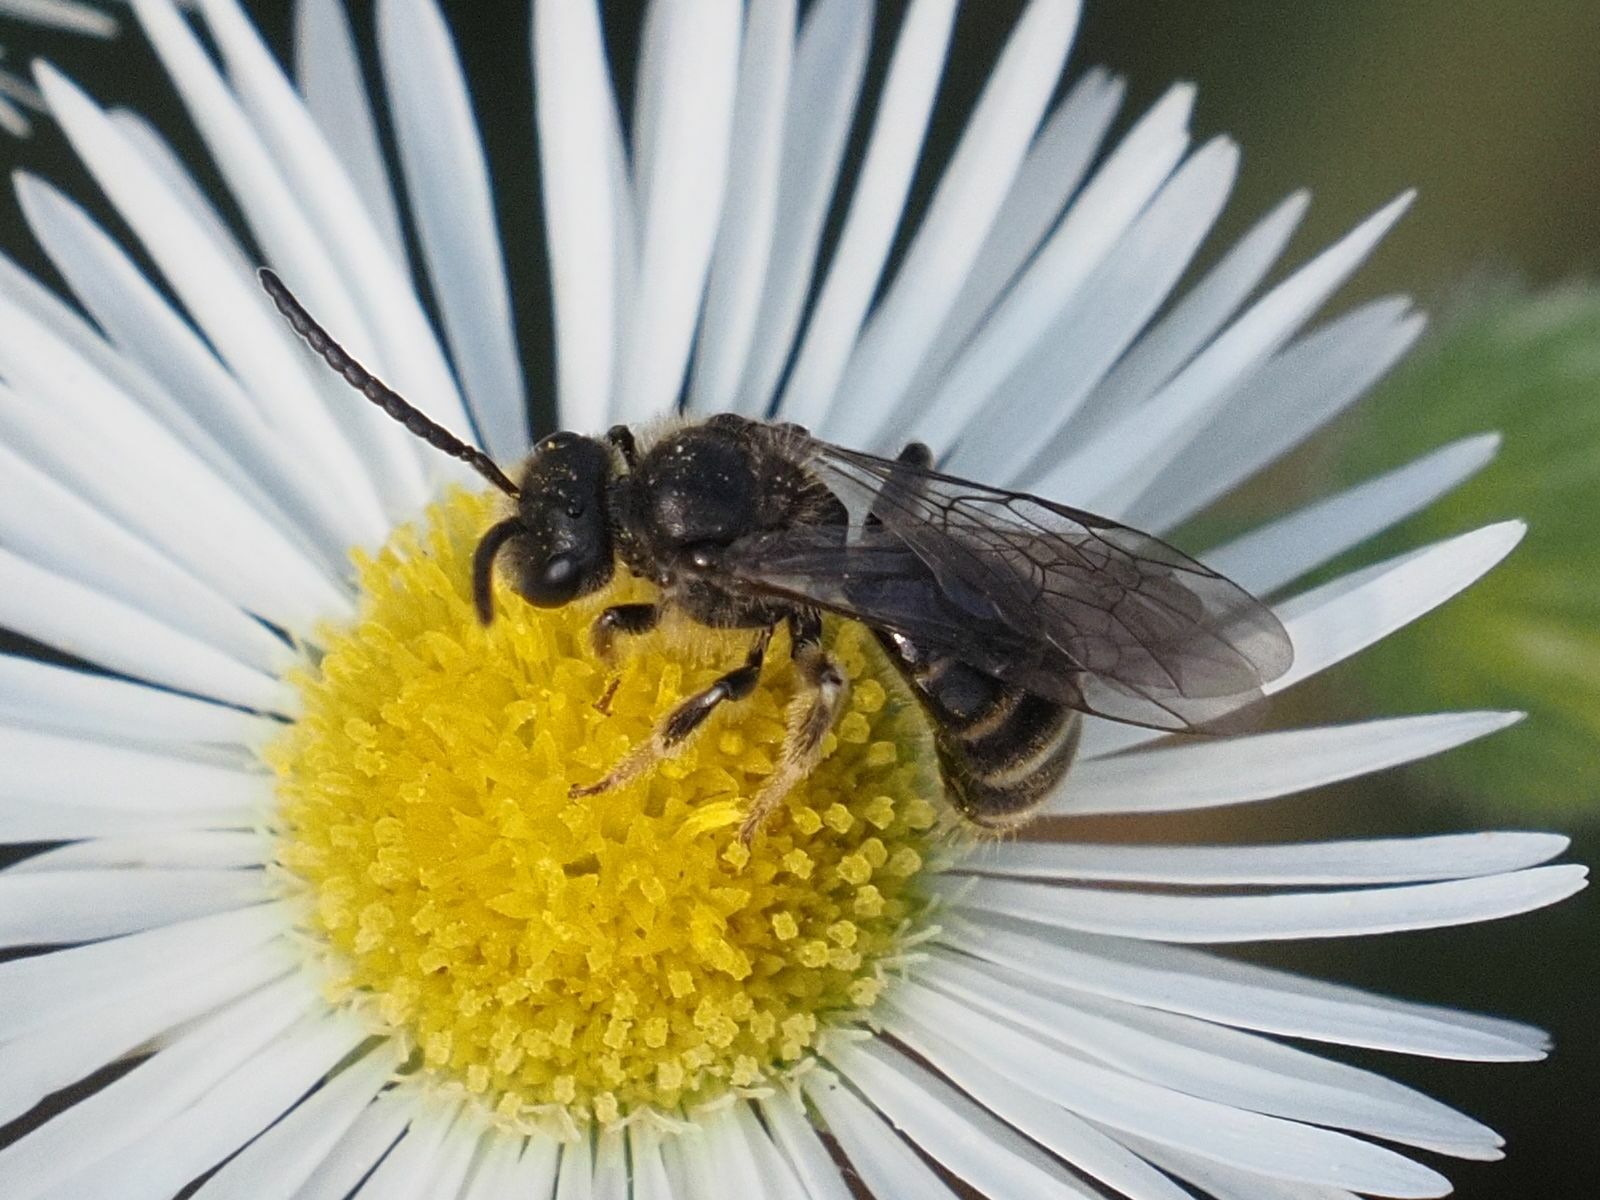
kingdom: Animalia
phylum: Arthropoda
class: Insecta
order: Hymenoptera
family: Halictidae
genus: Lasioglossum
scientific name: Lasioglossum marginatum
